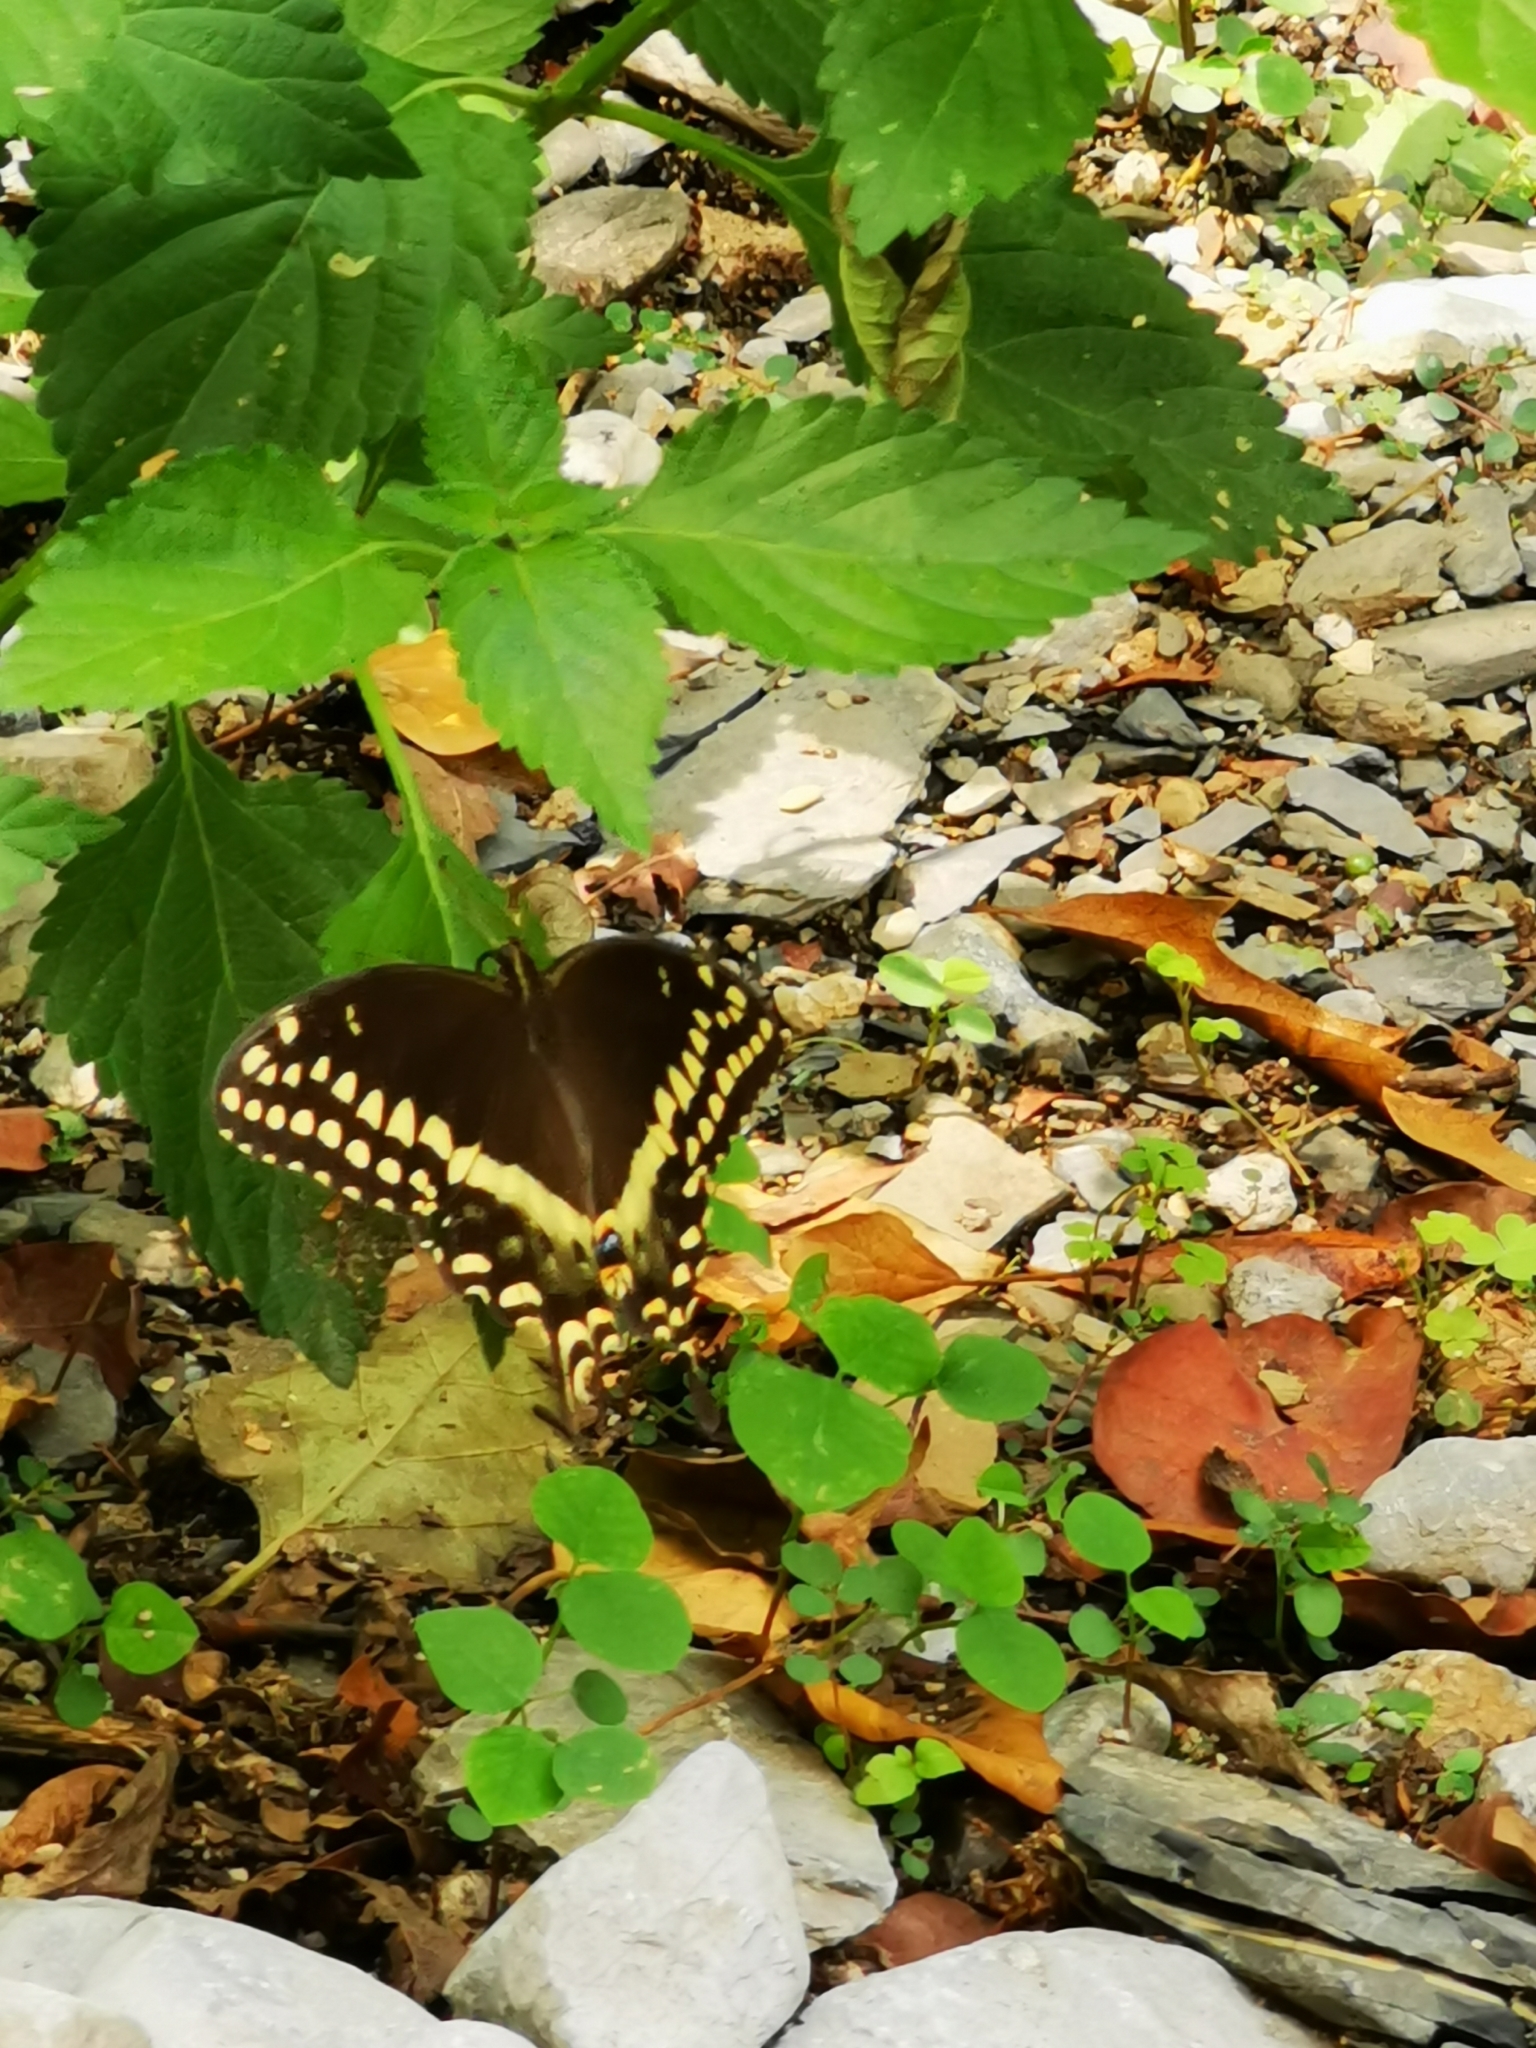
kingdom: Animalia
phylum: Arthropoda
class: Insecta
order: Lepidoptera
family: Papilionidae
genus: Papilio
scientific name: Papilio palamedes
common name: Palamedes swallowtail
